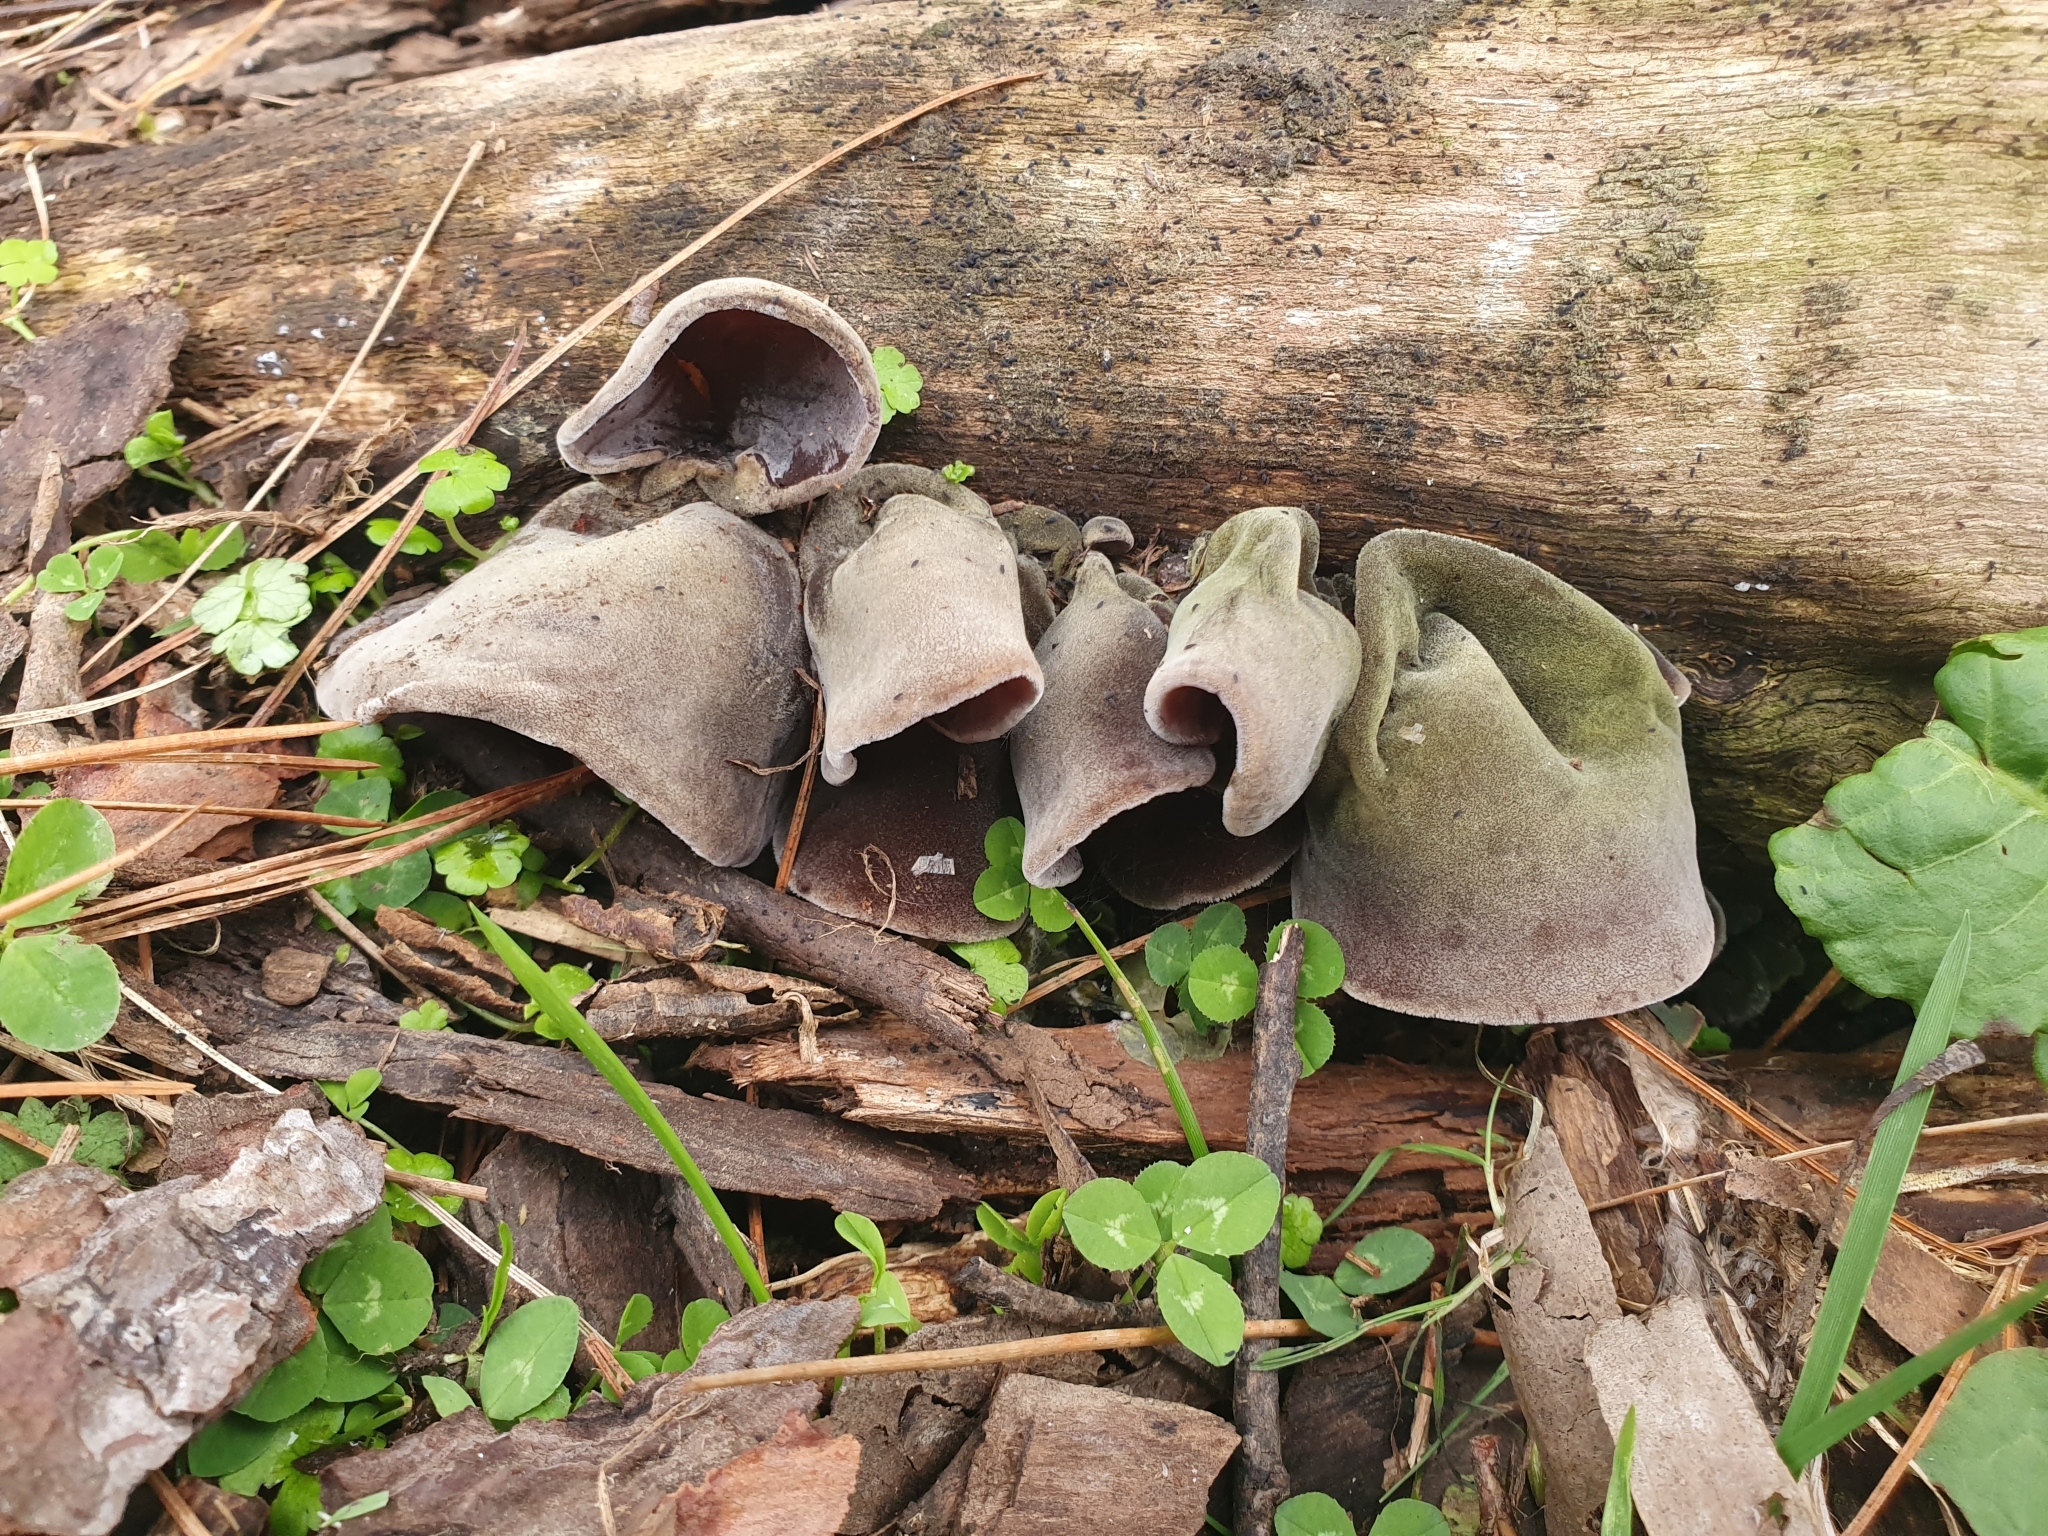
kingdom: Fungi
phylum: Basidiomycota
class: Agaricomycetes
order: Auriculariales
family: Auriculariaceae
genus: Auricularia
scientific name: Auricularia cornea
